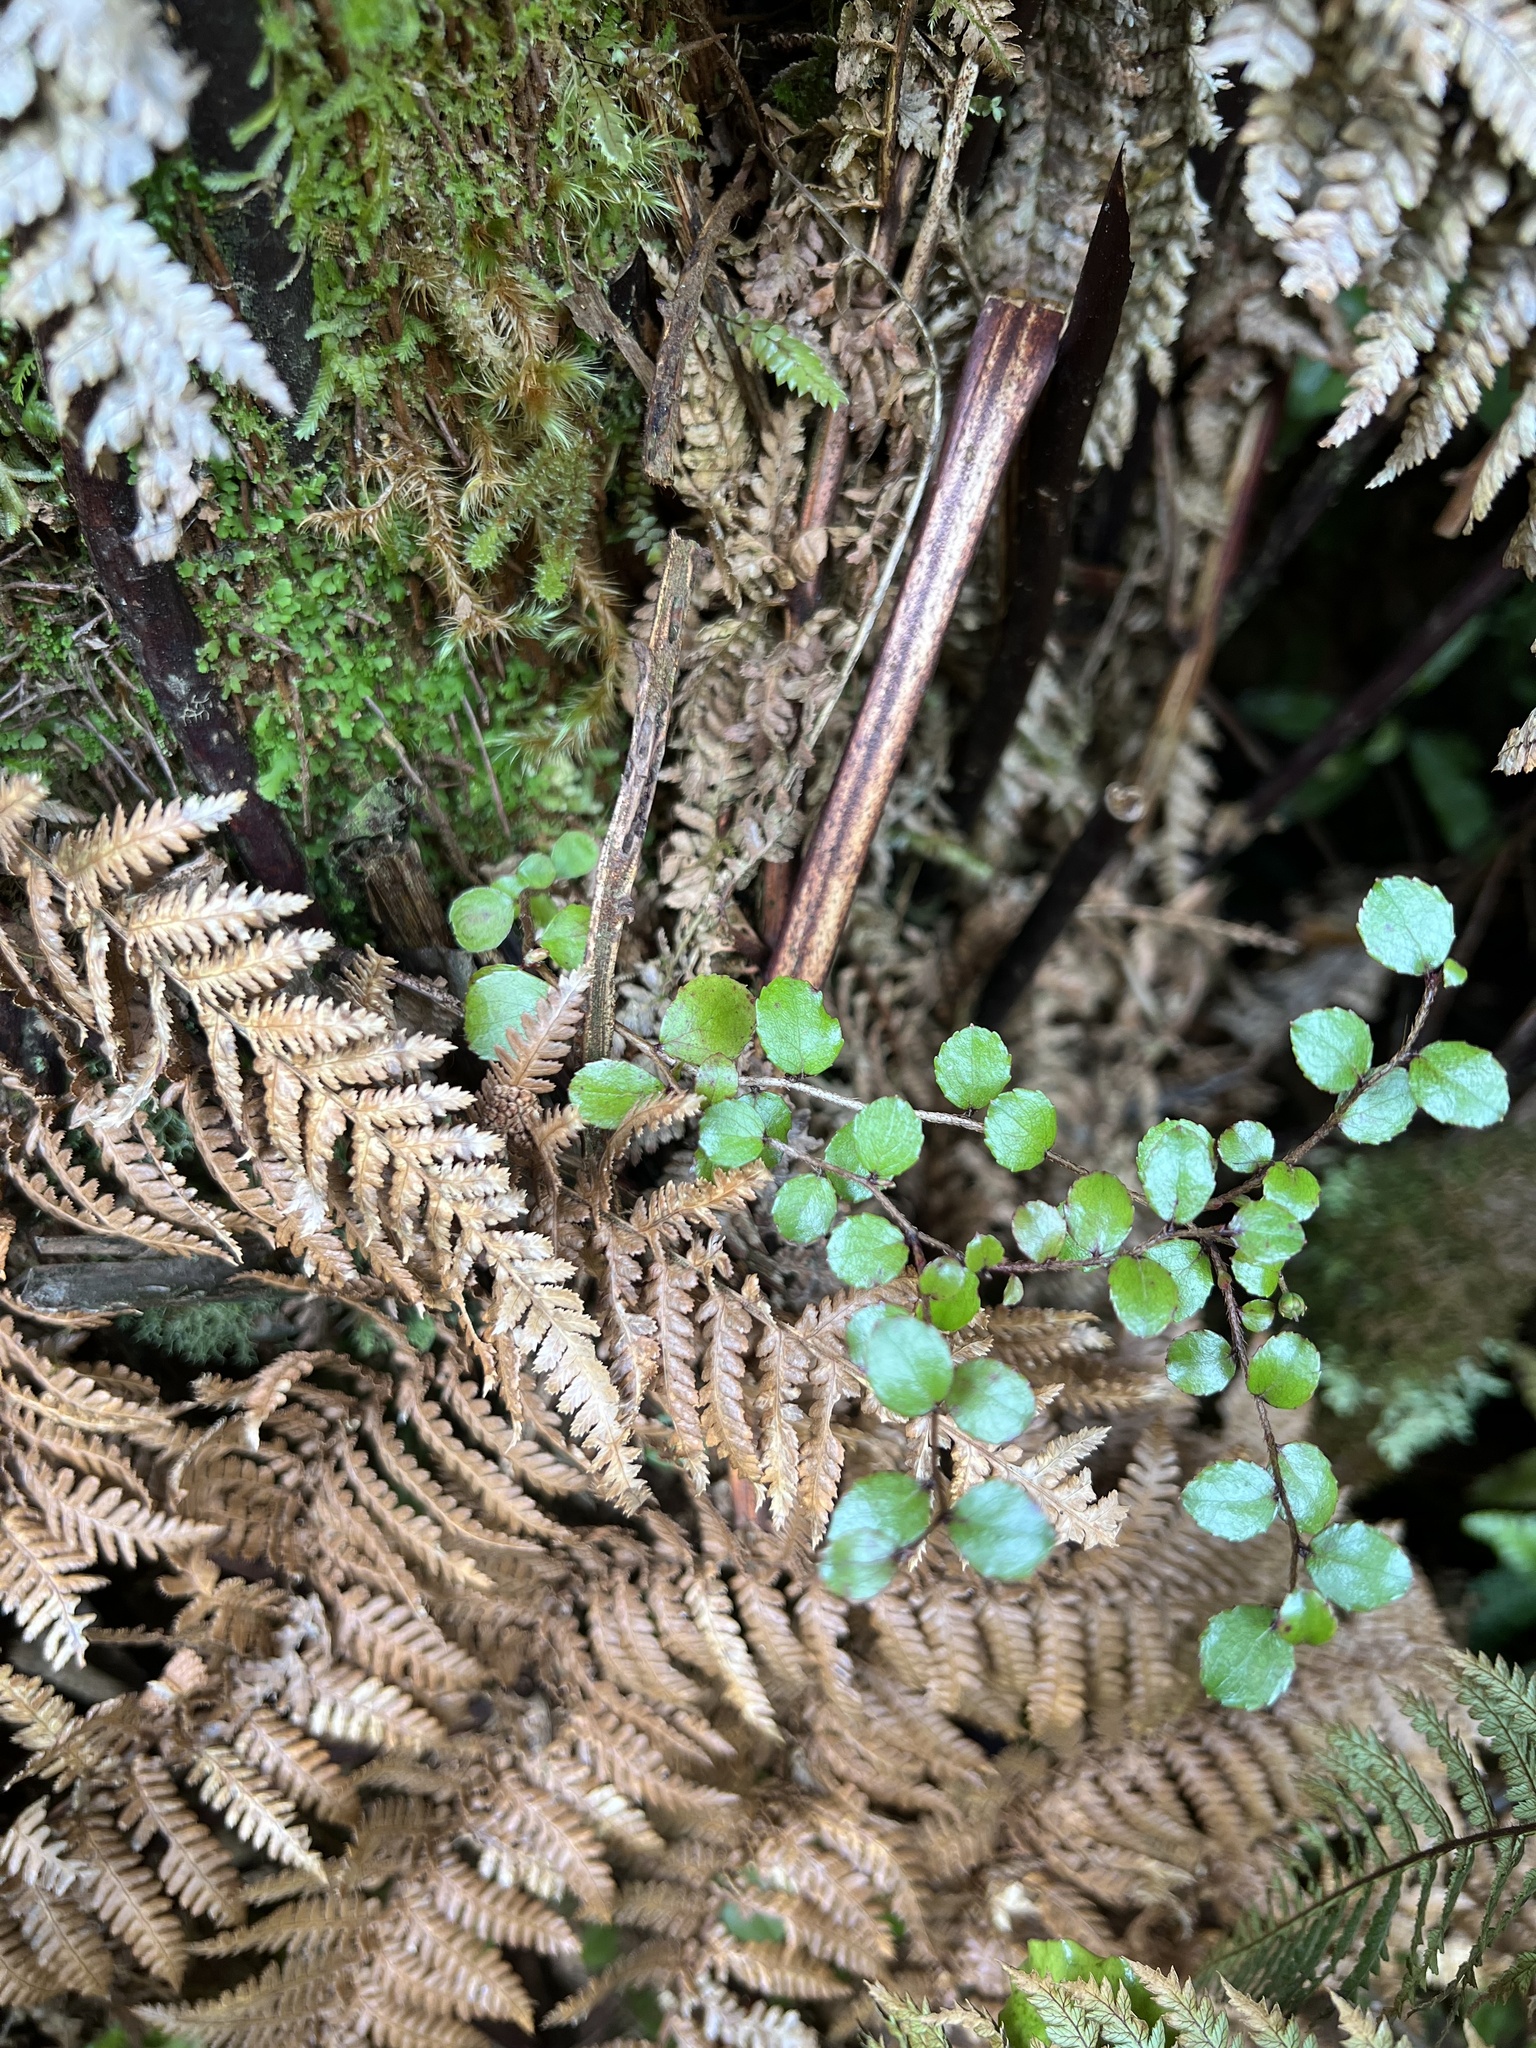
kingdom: Plantae
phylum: Tracheophyta
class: Magnoliopsida
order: Ericales
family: Ericaceae
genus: Gaultheria
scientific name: Gaultheria antipoda
